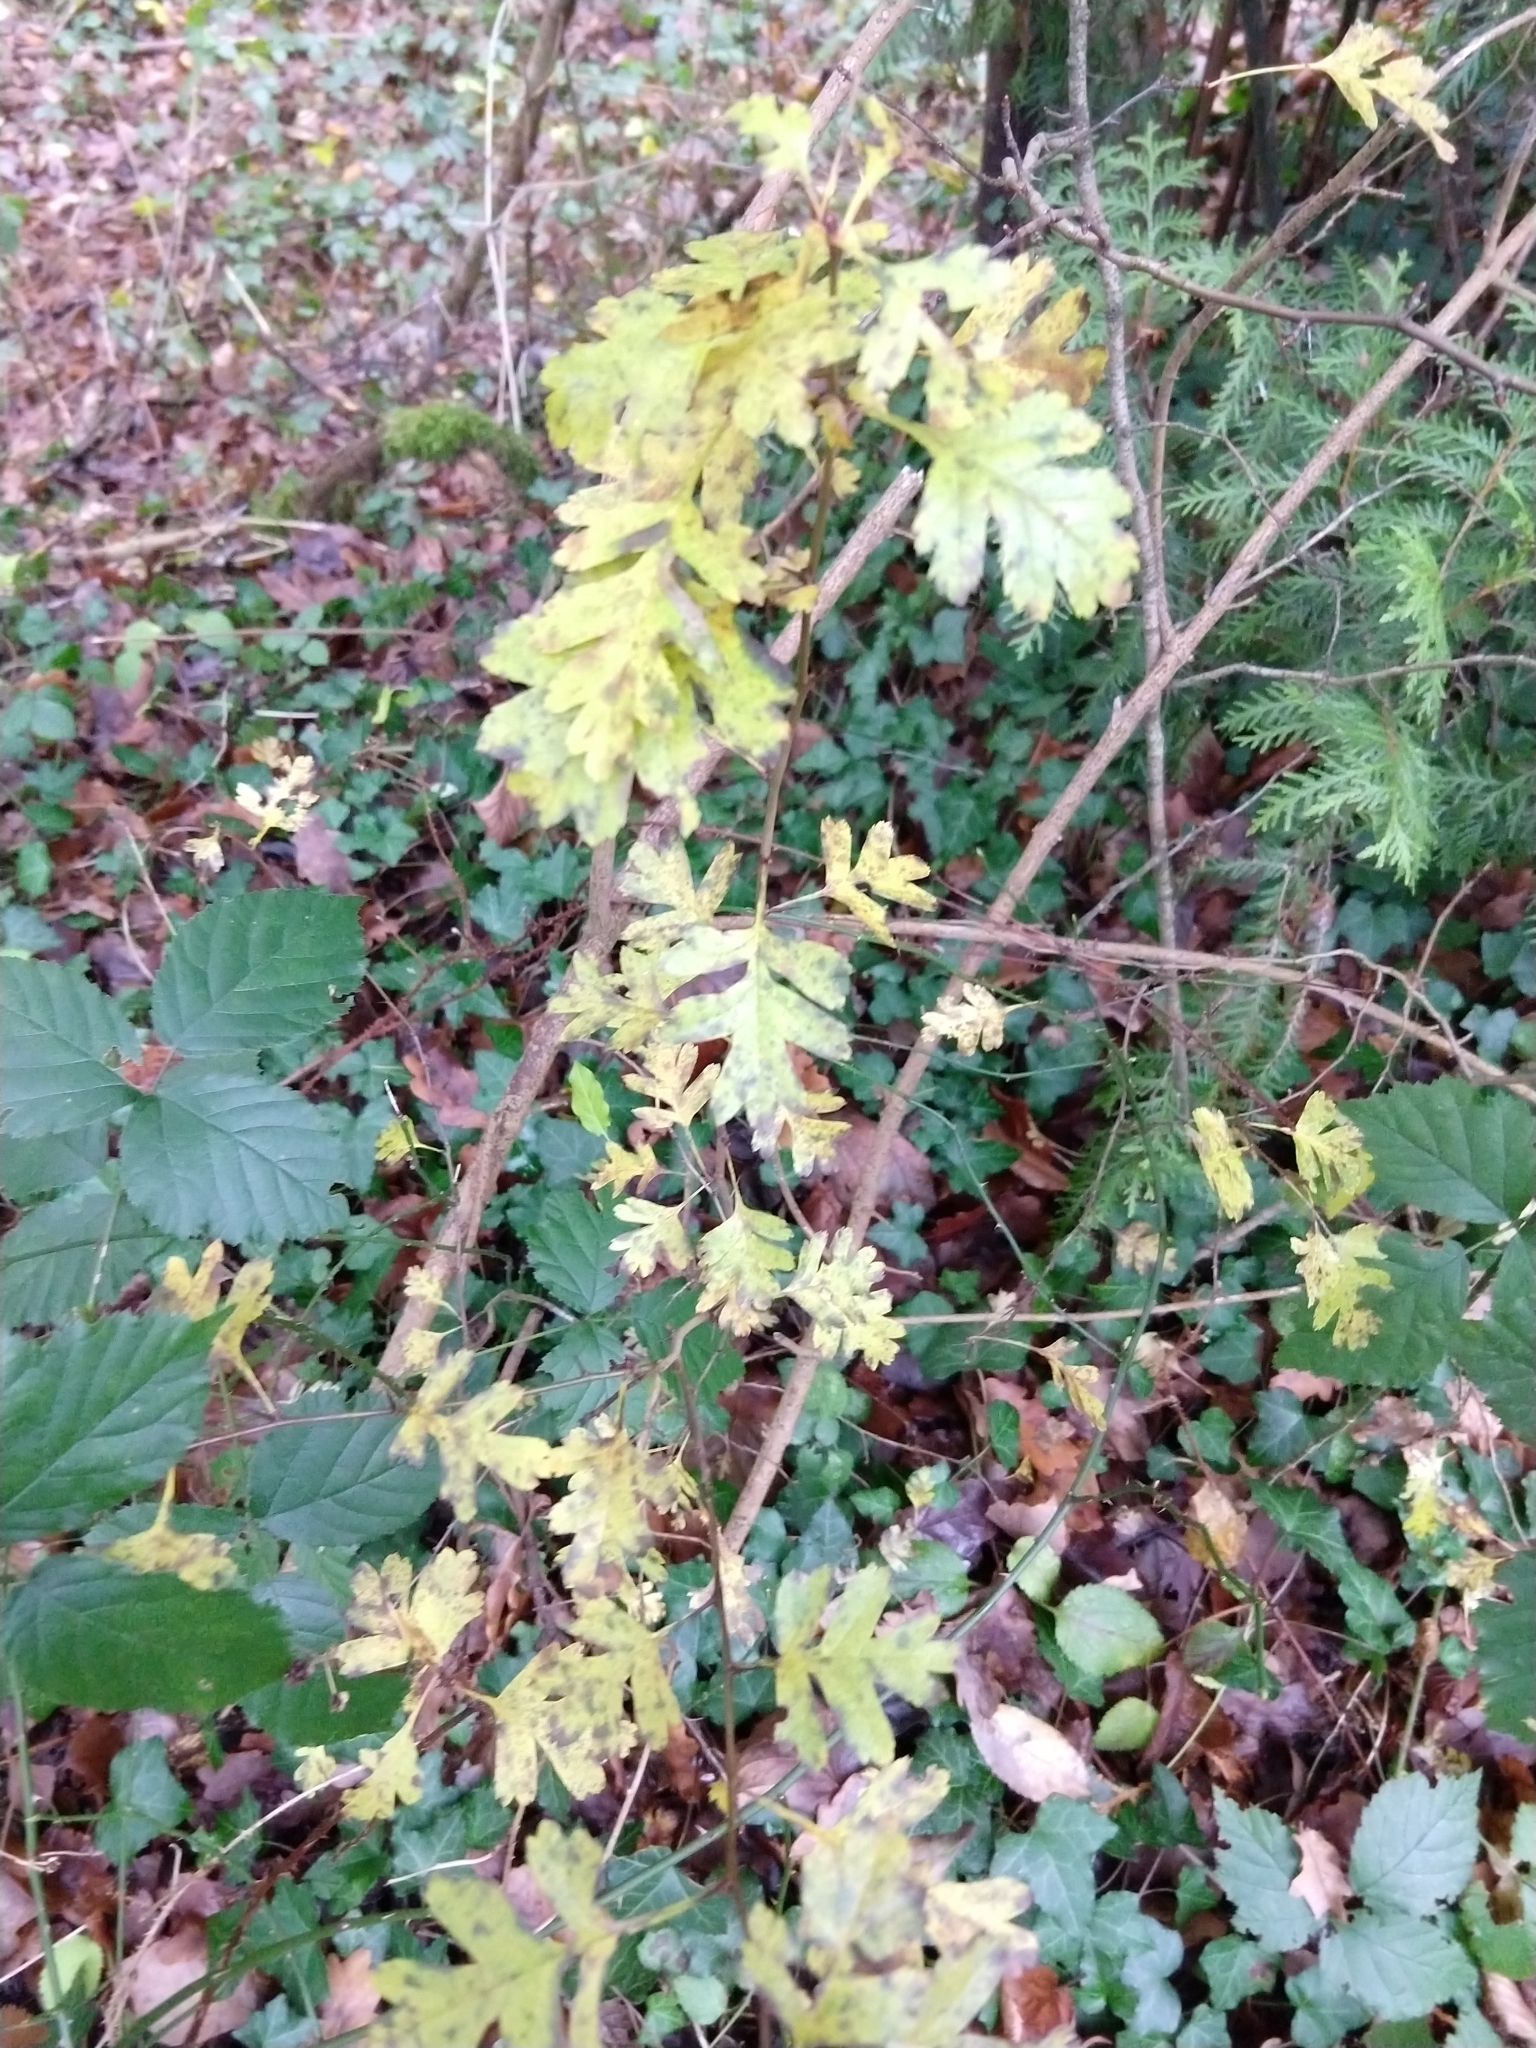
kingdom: Plantae
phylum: Tracheophyta
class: Magnoliopsida
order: Rosales
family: Rosaceae
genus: Crataegus
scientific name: Crataegus monogyna
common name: Hawthorn
